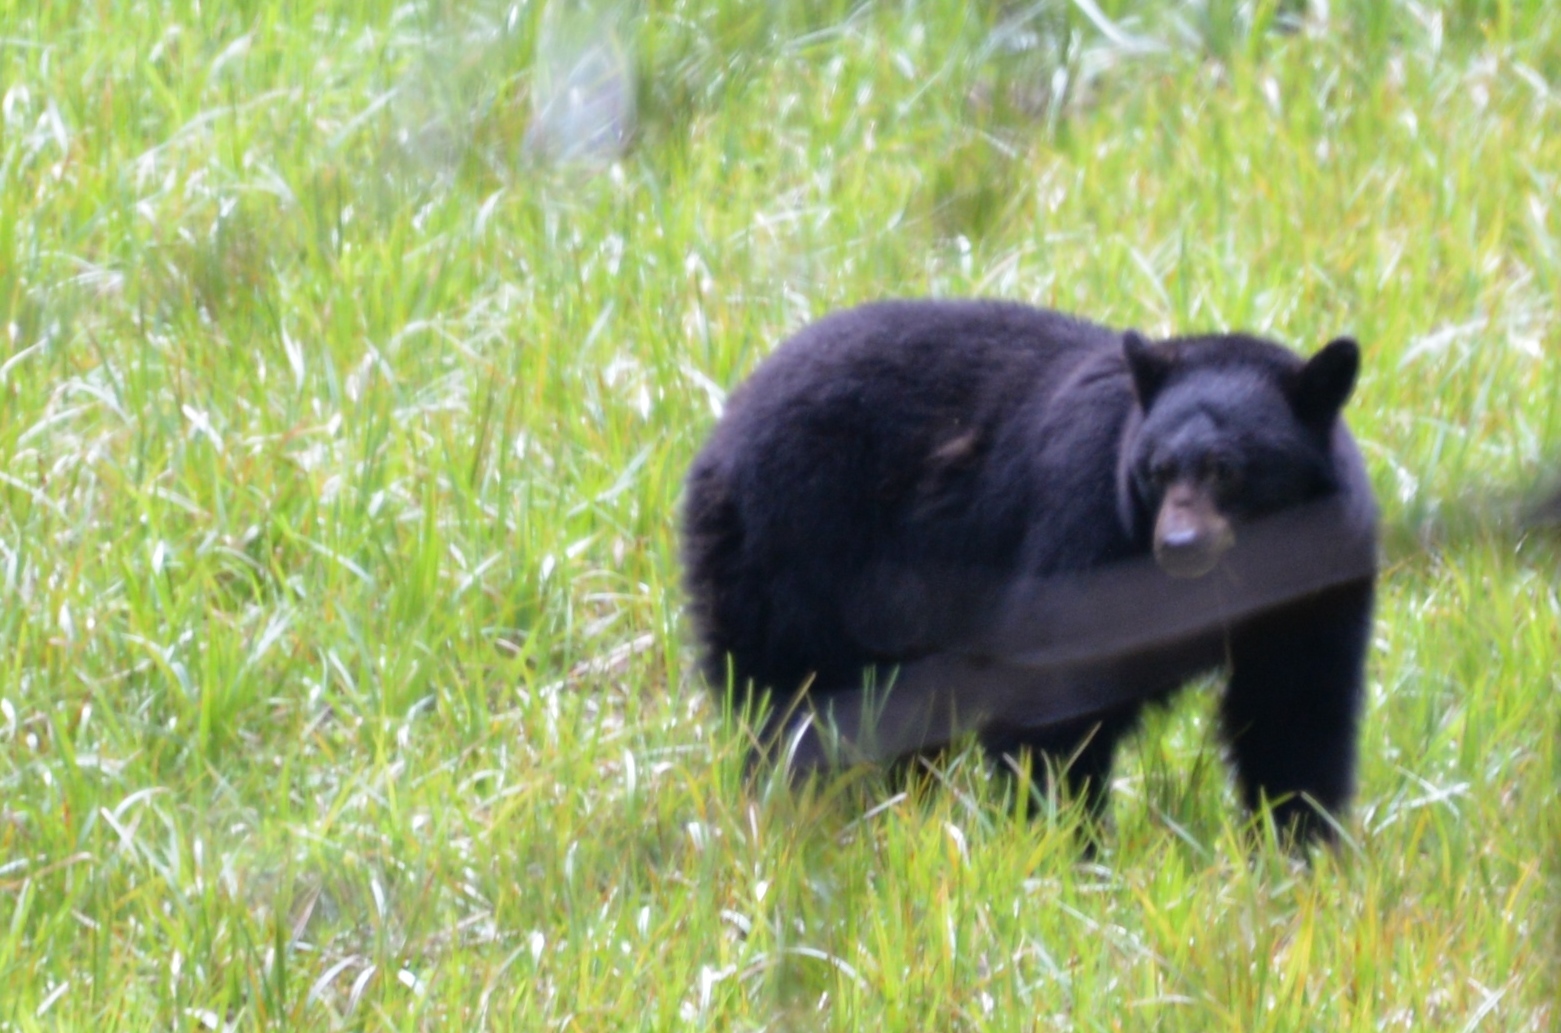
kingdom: Animalia
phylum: Chordata
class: Mammalia
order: Carnivora
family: Ursidae
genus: Ursus
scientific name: Ursus americanus
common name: American black bear
